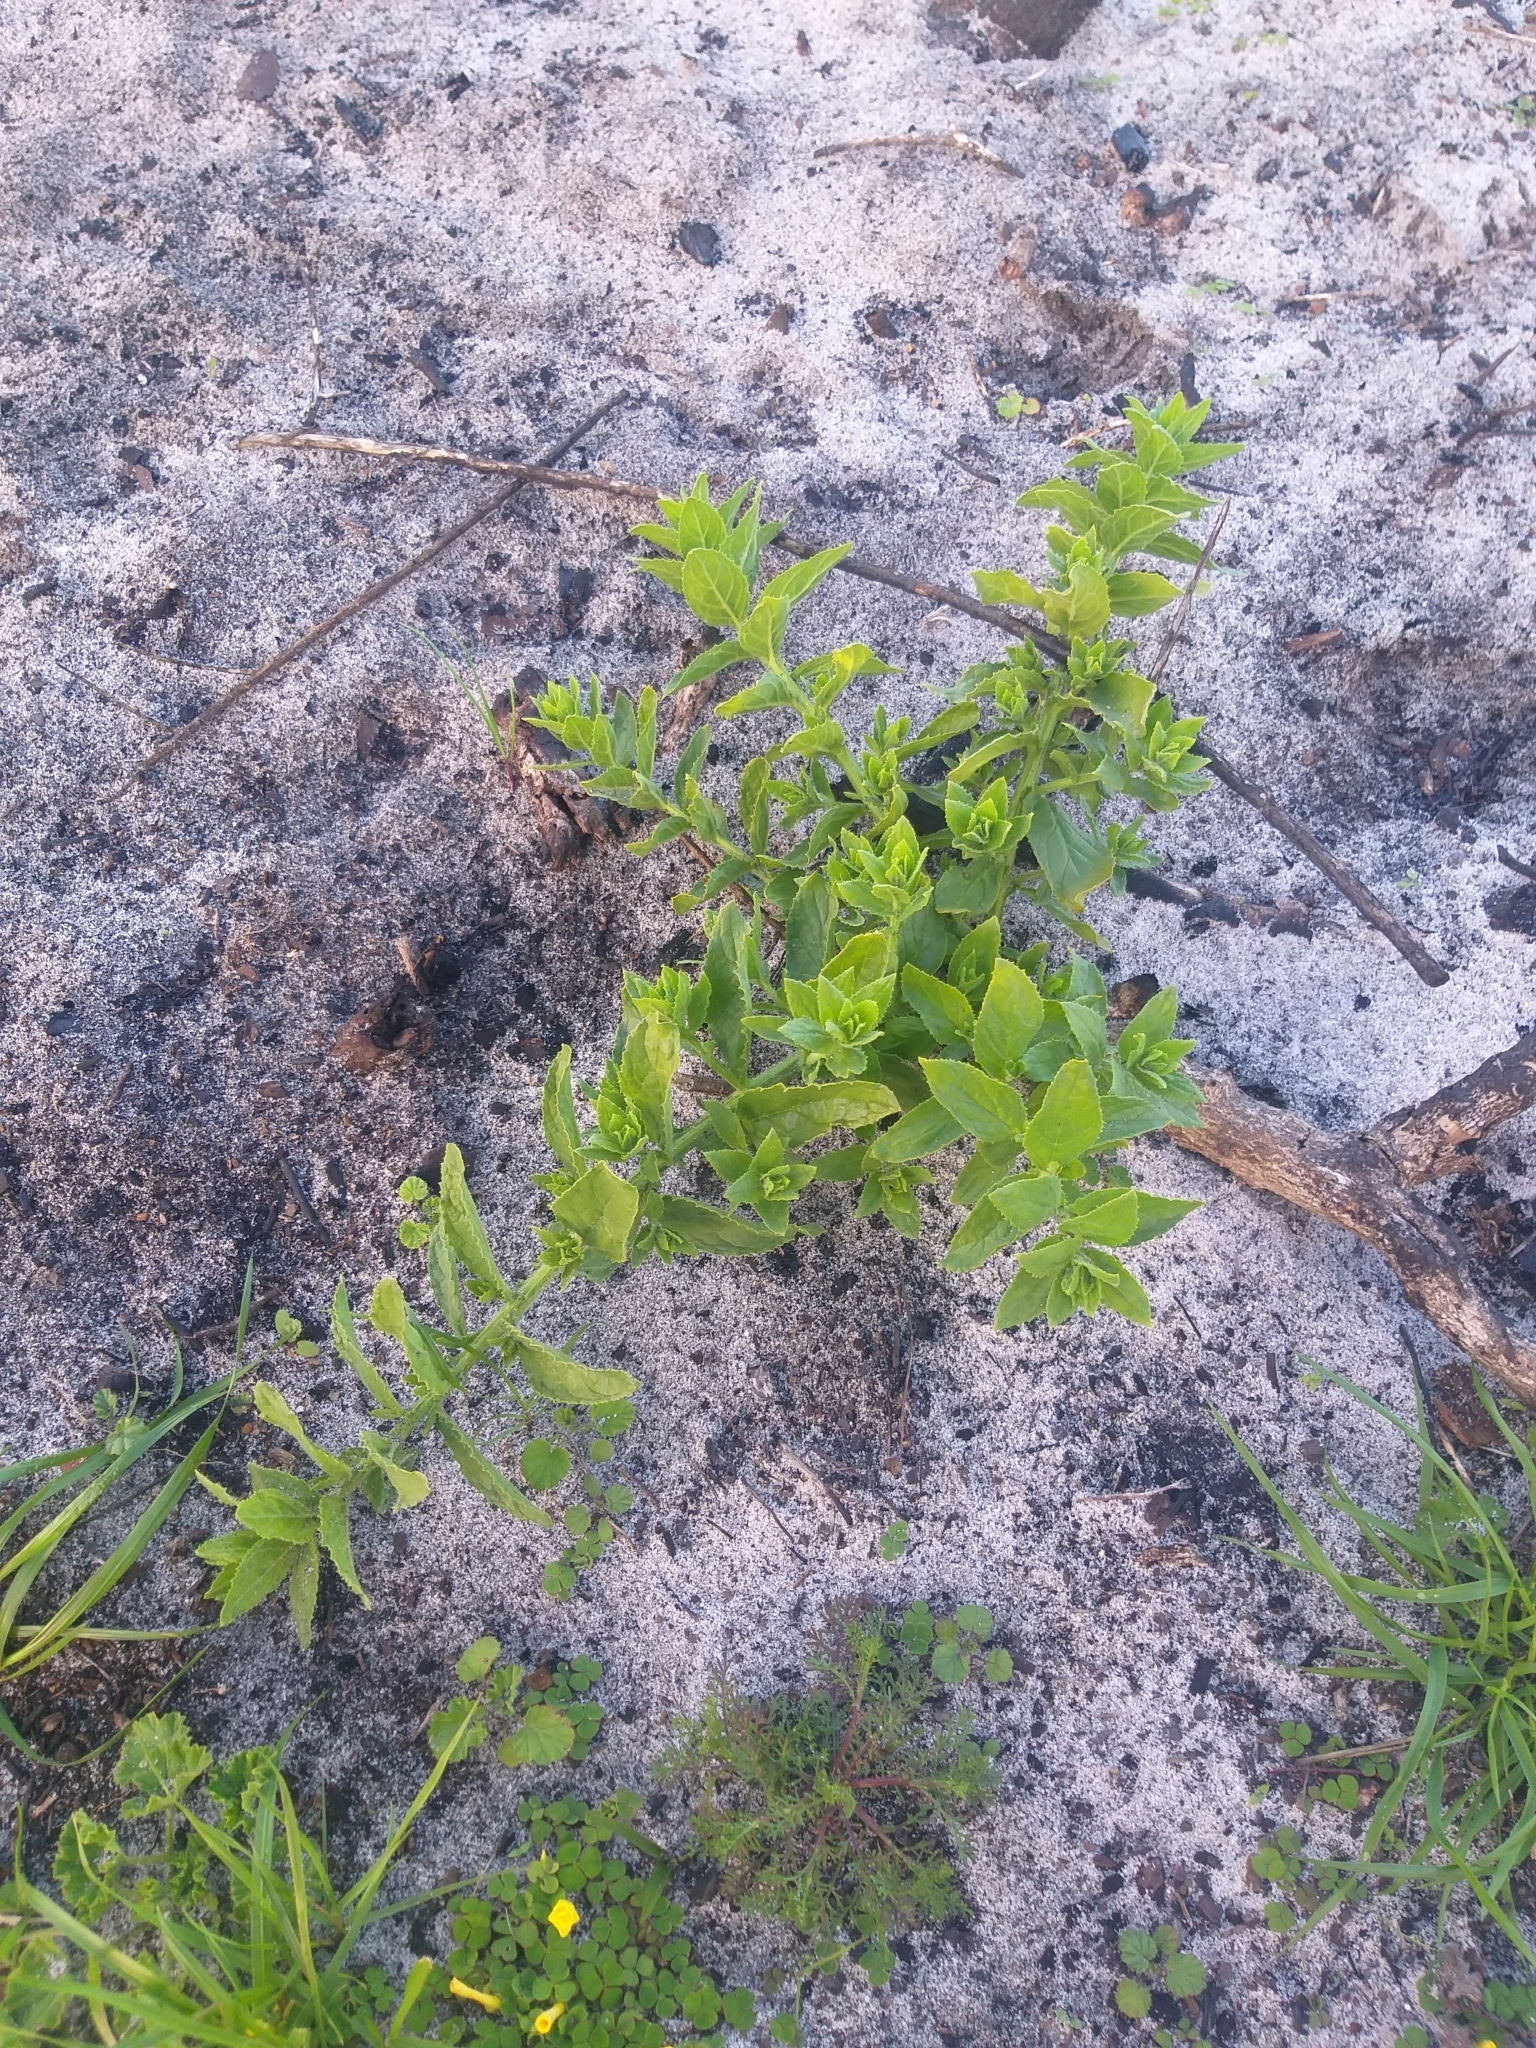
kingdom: Plantae
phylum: Tracheophyta
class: Magnoliopsida
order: Lamiales
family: Scrophulariaceae
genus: Oftia
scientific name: Oftia africana
